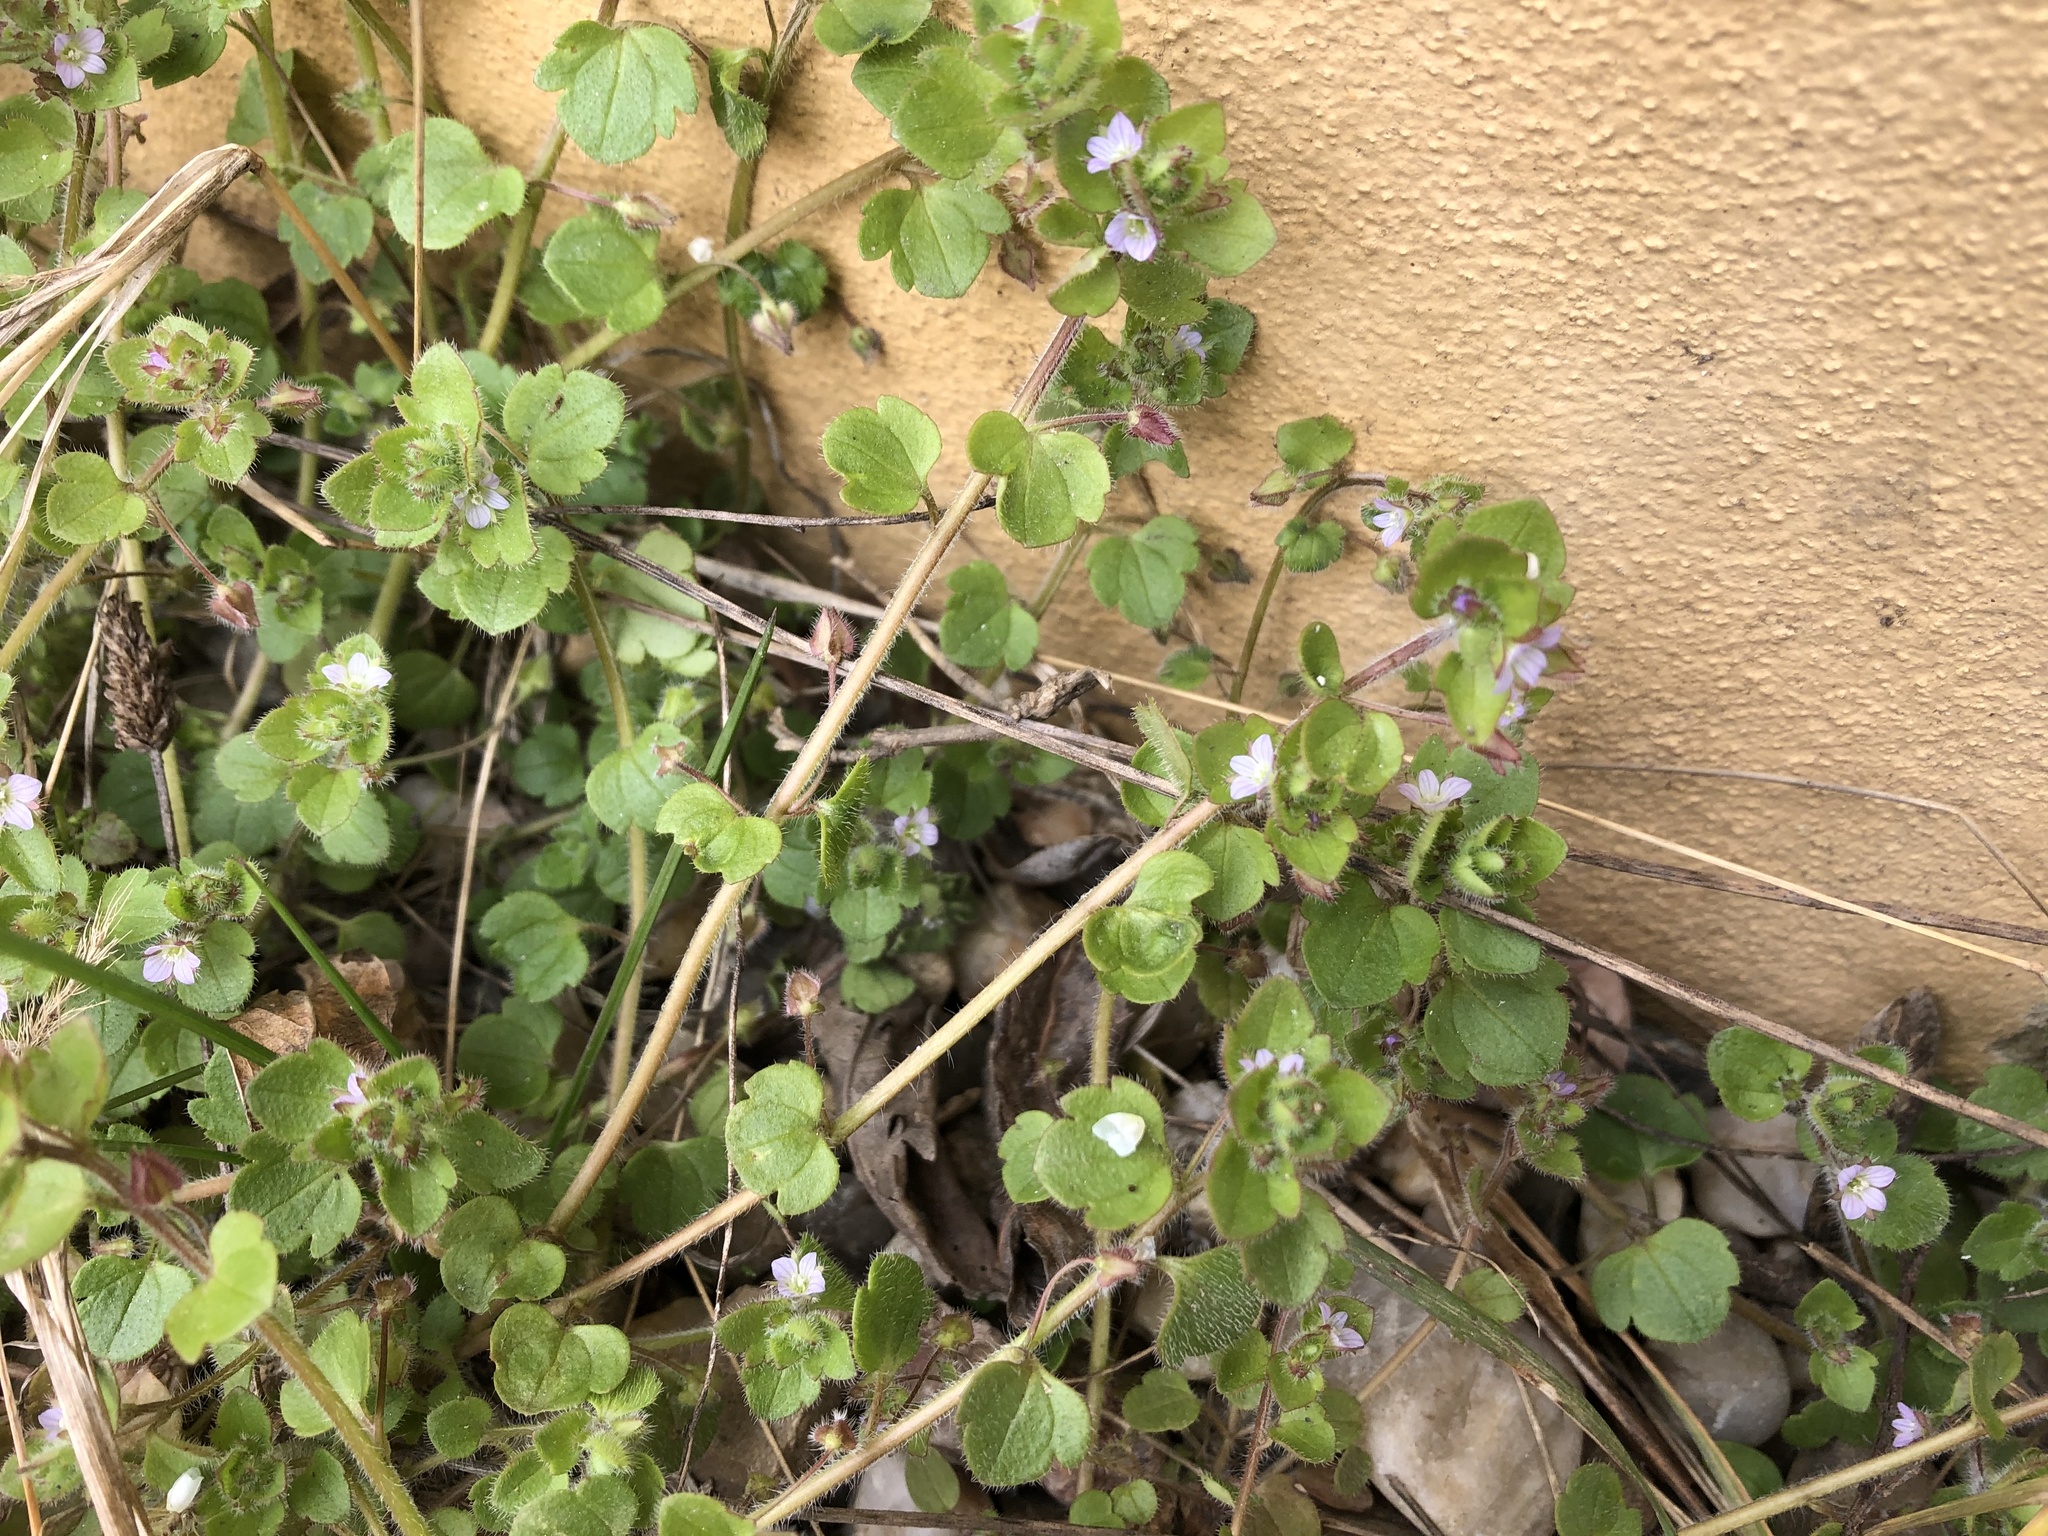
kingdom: Plantae
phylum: Tracheophyta
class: Magnoliopsida
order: Lamiales
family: Plantaginaceae
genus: Veronica
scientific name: Veronica sublobata
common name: False ivy-leaved speedwell
